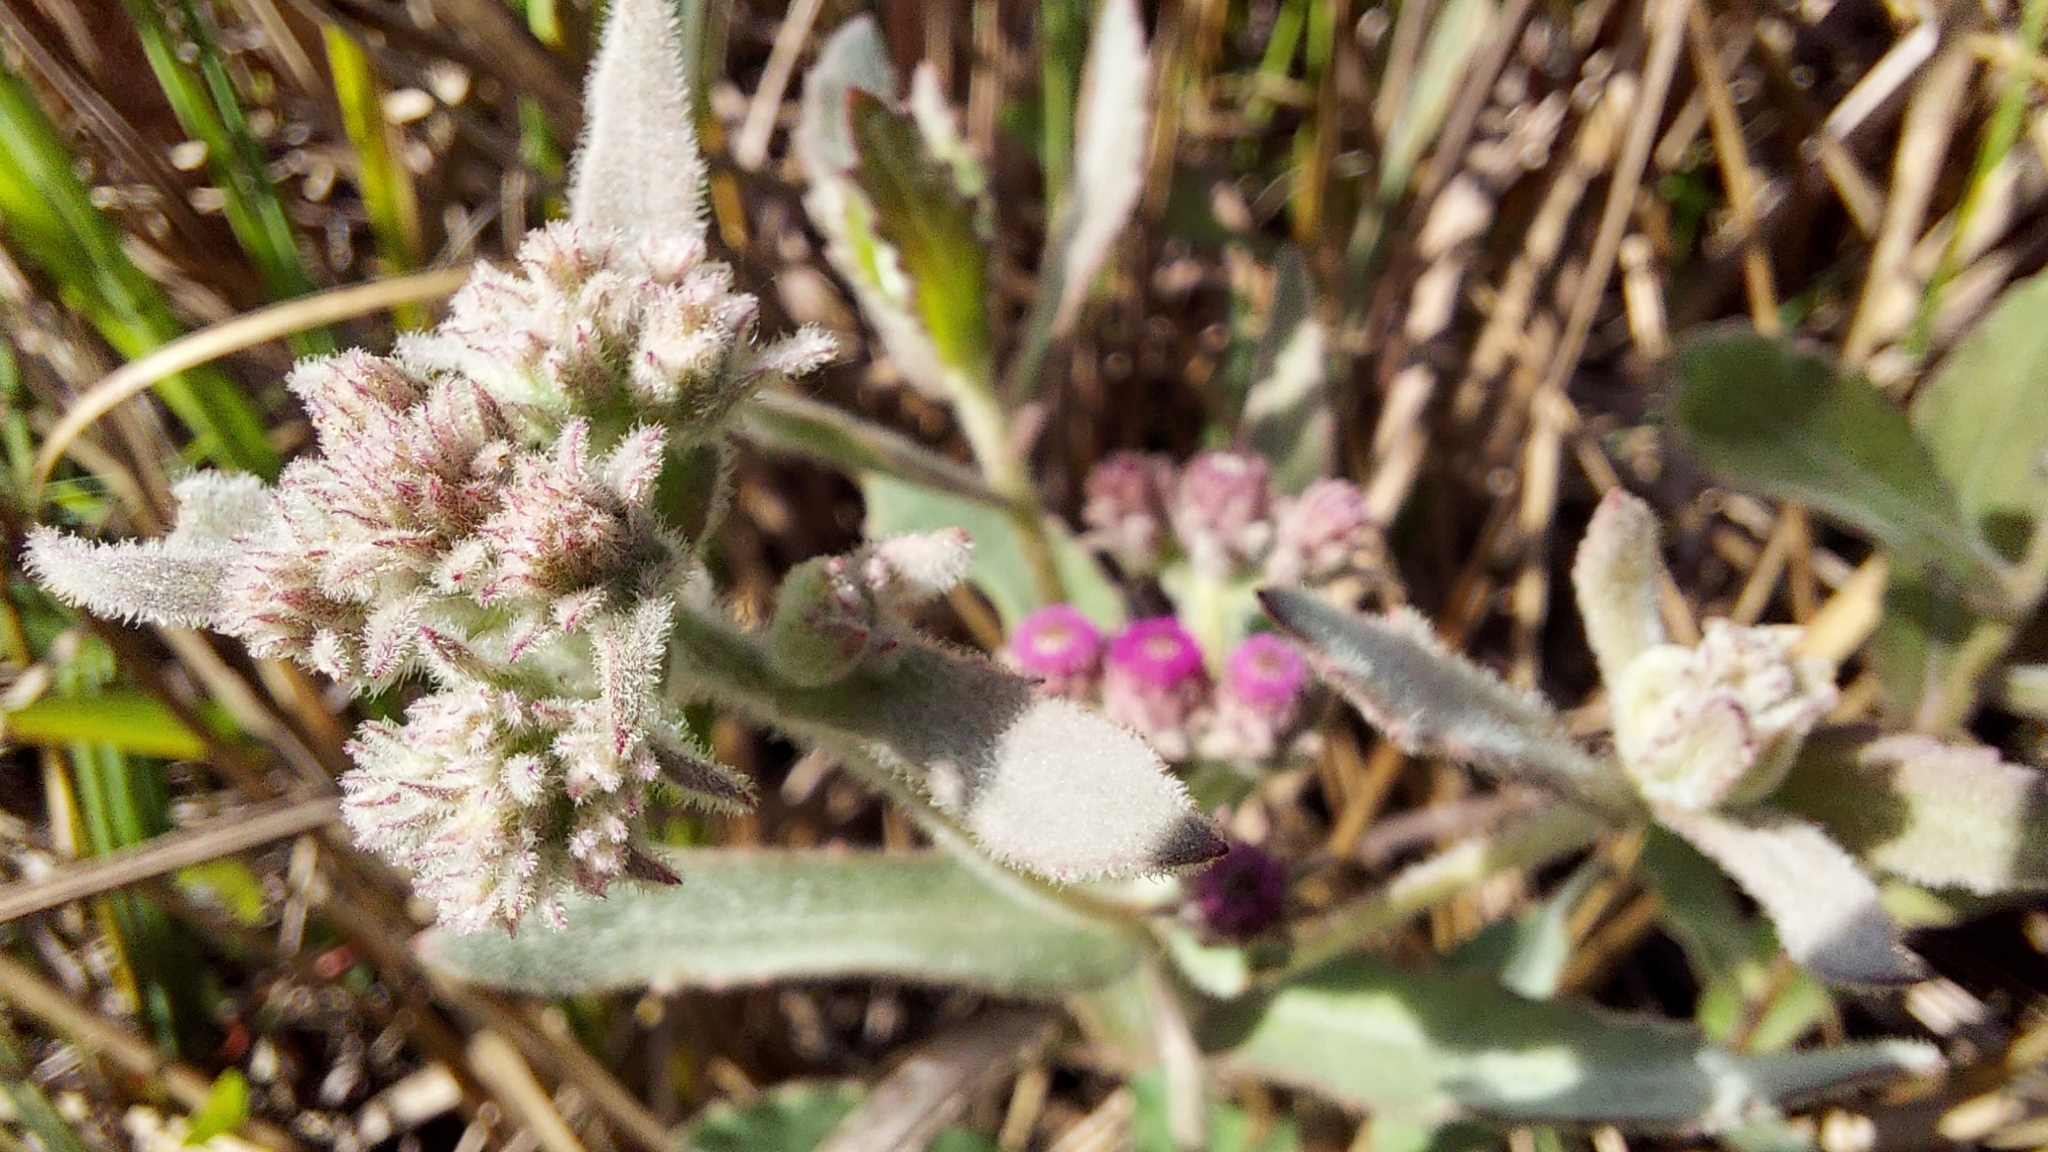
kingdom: Plantae
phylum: Tracheophyta
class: Magnoliopsida
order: Asterales
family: Asteraceae
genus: Pluchea
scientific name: Pluchea baccharis
